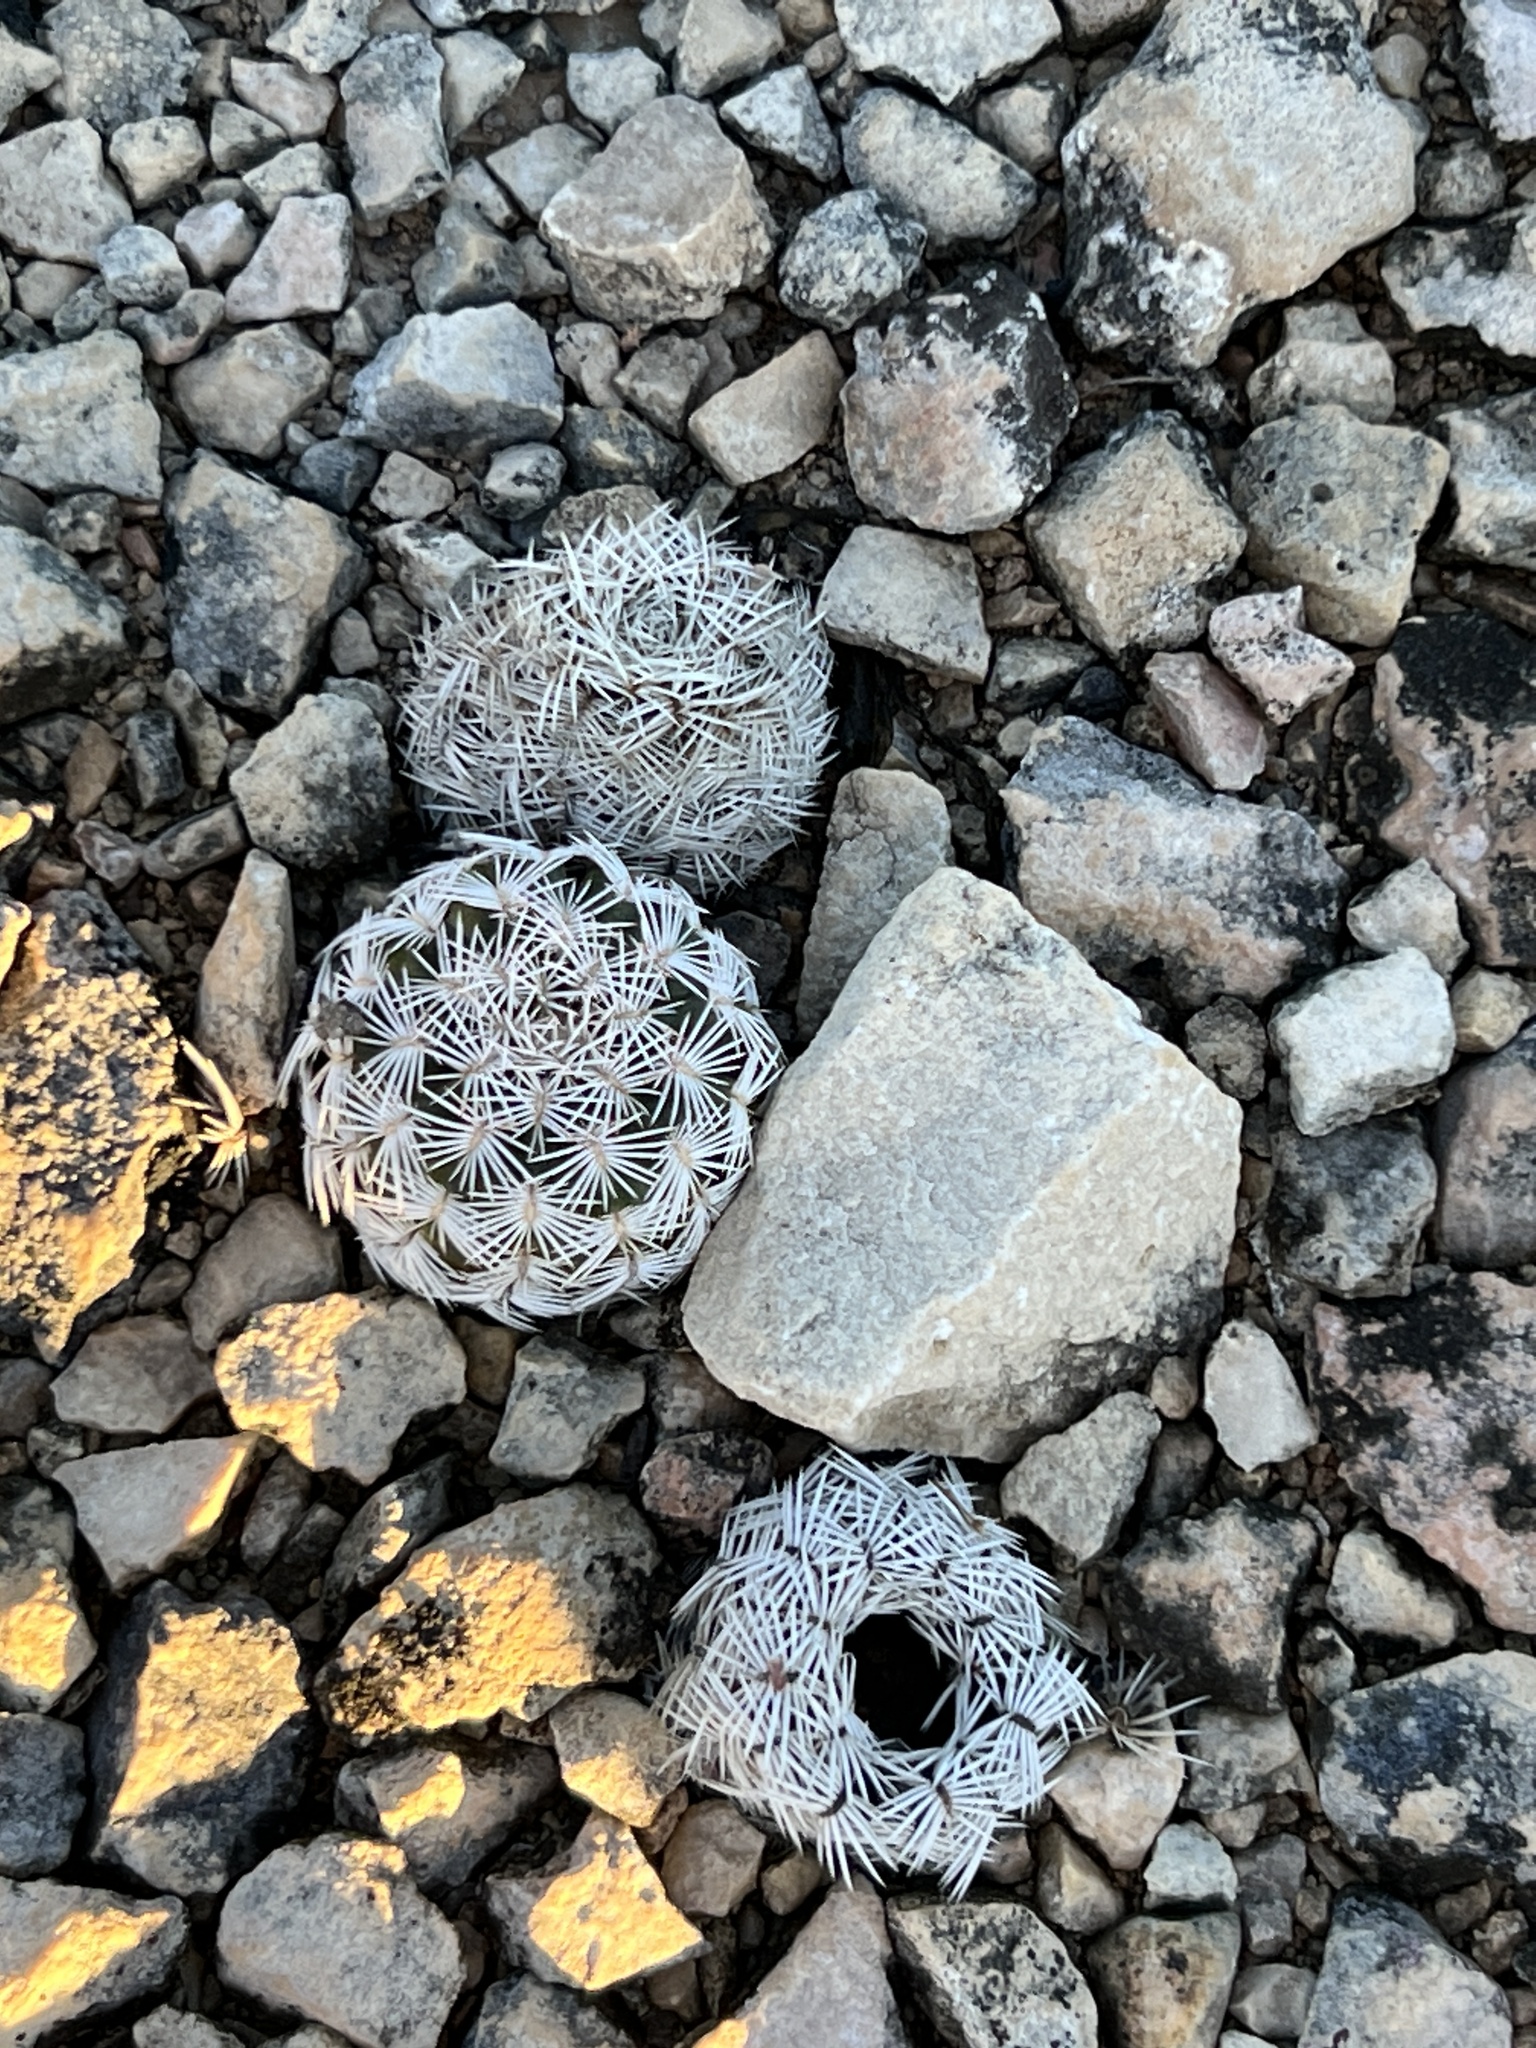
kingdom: Plantae
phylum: Tracheophyta
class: Magnoliopsida
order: Caryophyllales
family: Cactaceae
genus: Echinocereus
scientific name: Echinocereus reichenbachii
